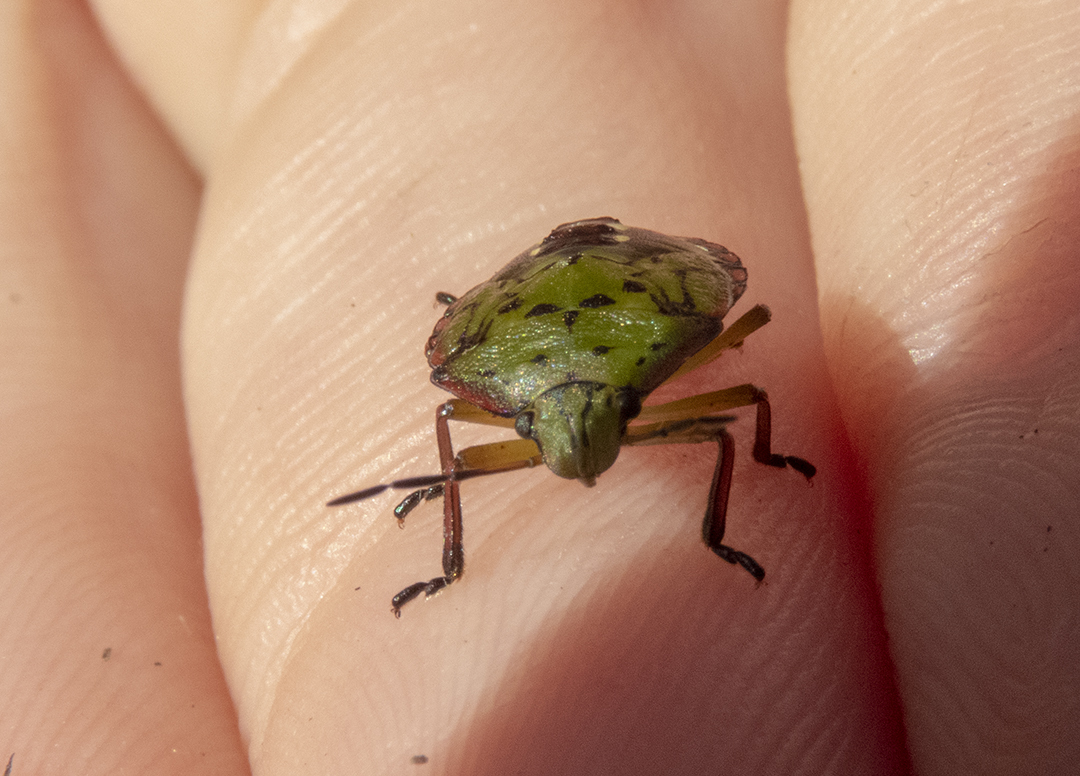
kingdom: Animalia
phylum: Arthropoda
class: Insecta
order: Hemiptera
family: Pentatomidae
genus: Nezara
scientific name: Nezara viridula
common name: Southern green stink bug
